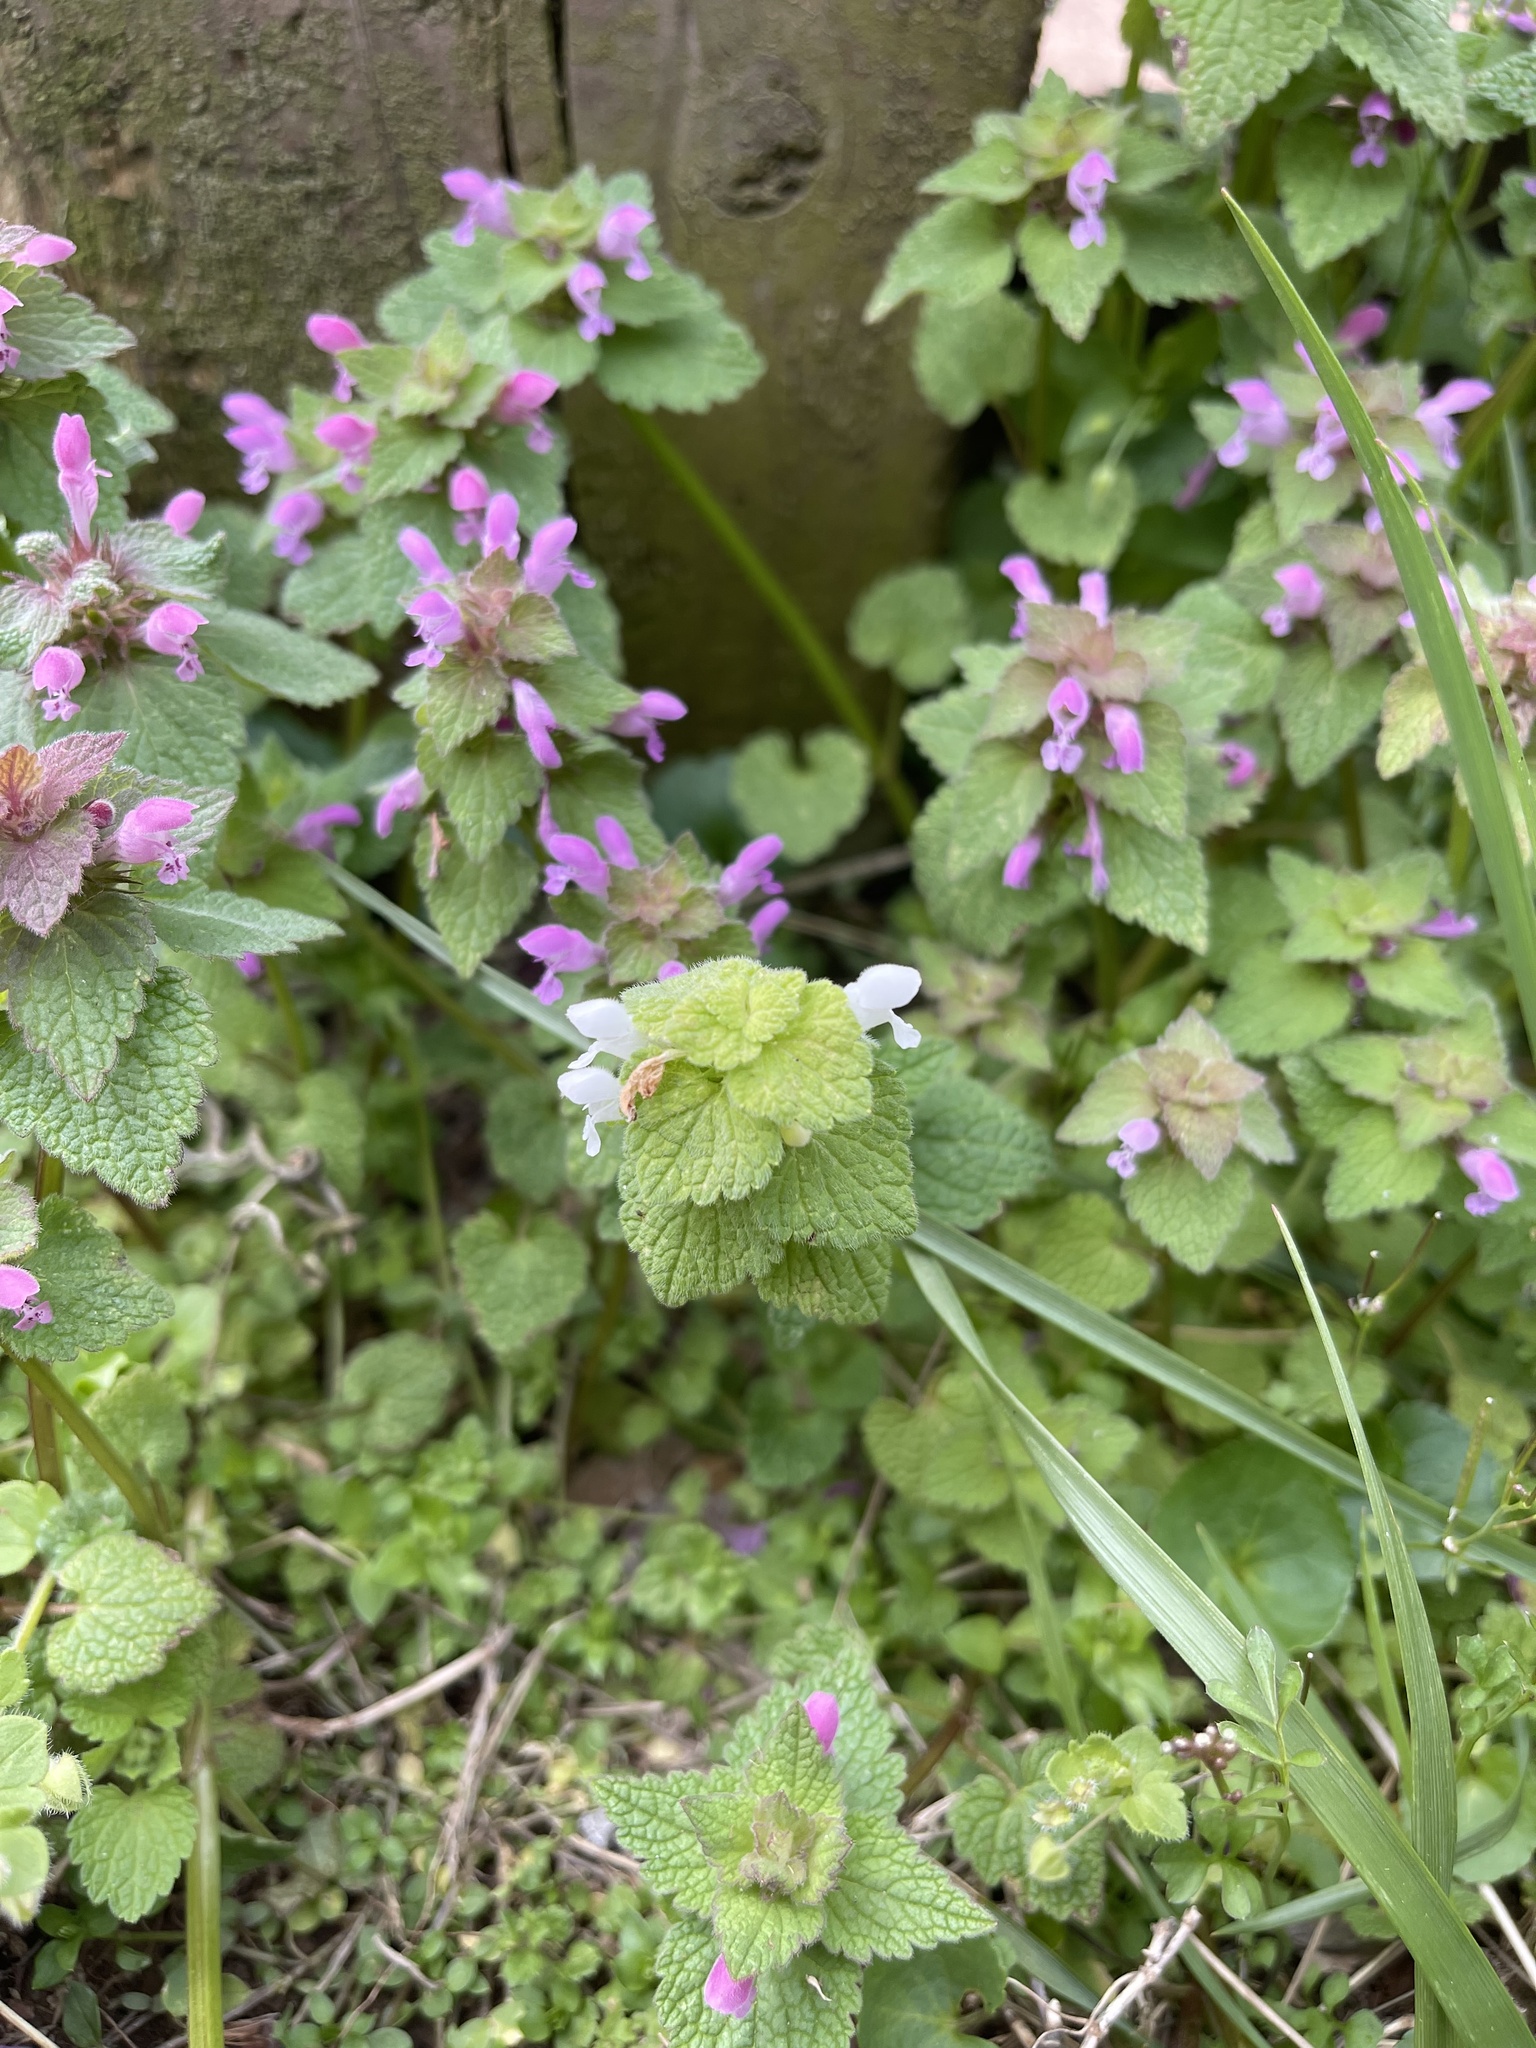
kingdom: Plantae
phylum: Tracheophyta
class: Magnoliopsida
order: Lamiales
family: Lamiaceae
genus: Lamium
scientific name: Lamium purpureum
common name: Red dead-nettle
